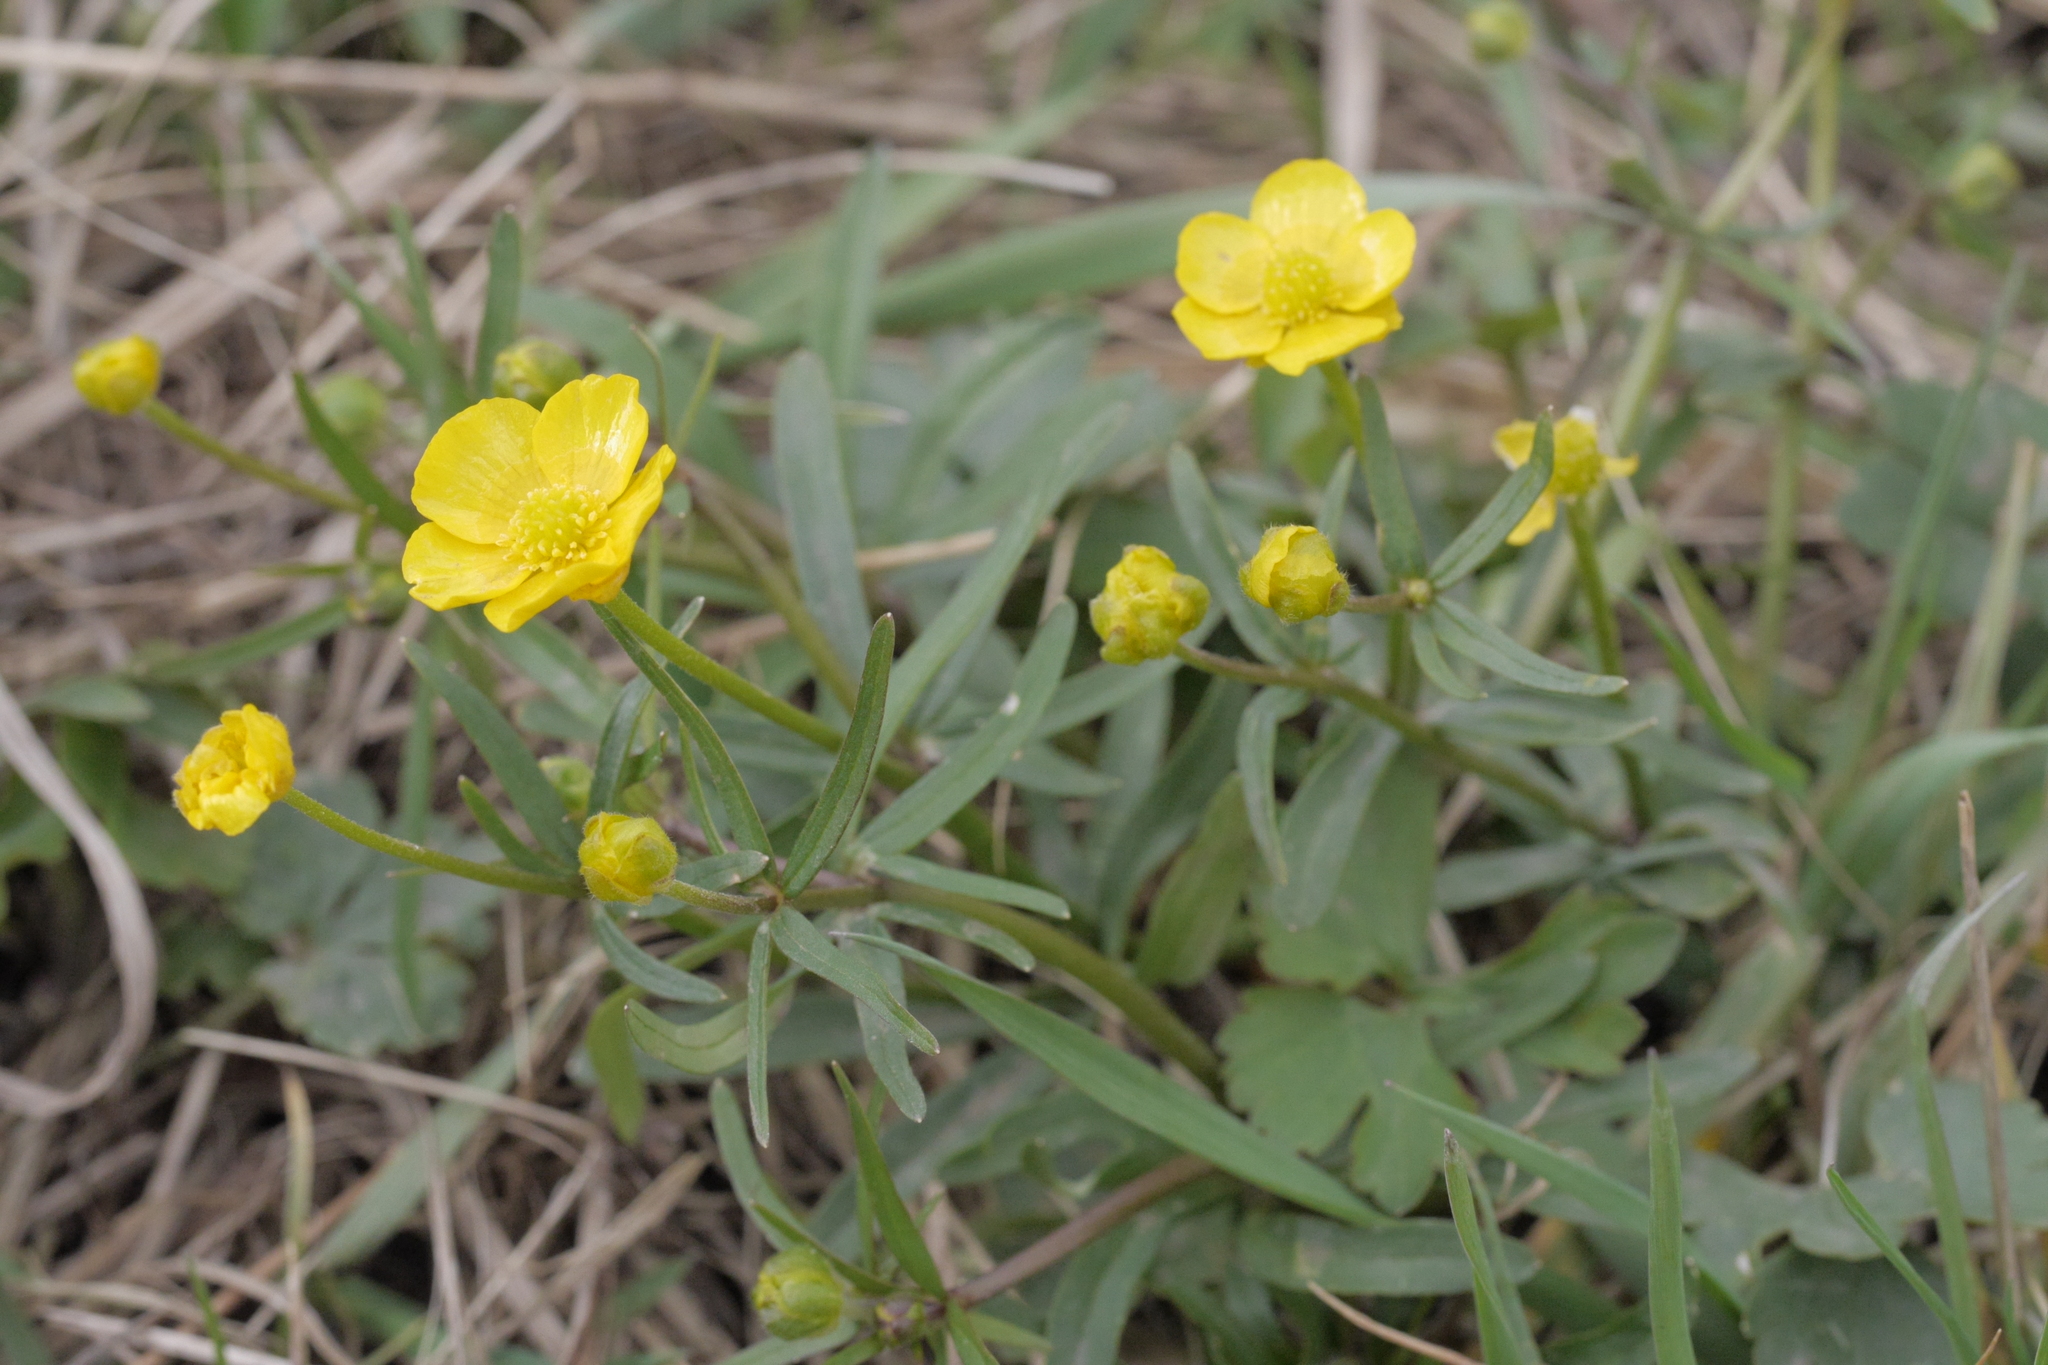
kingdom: Plantae
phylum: Tracheophyta
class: Magnoliopsida
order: Ranunculales
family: Ranunculaceae
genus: Ranunculus
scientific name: Ranunculus auricomus
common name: Goldilocks buttercup
